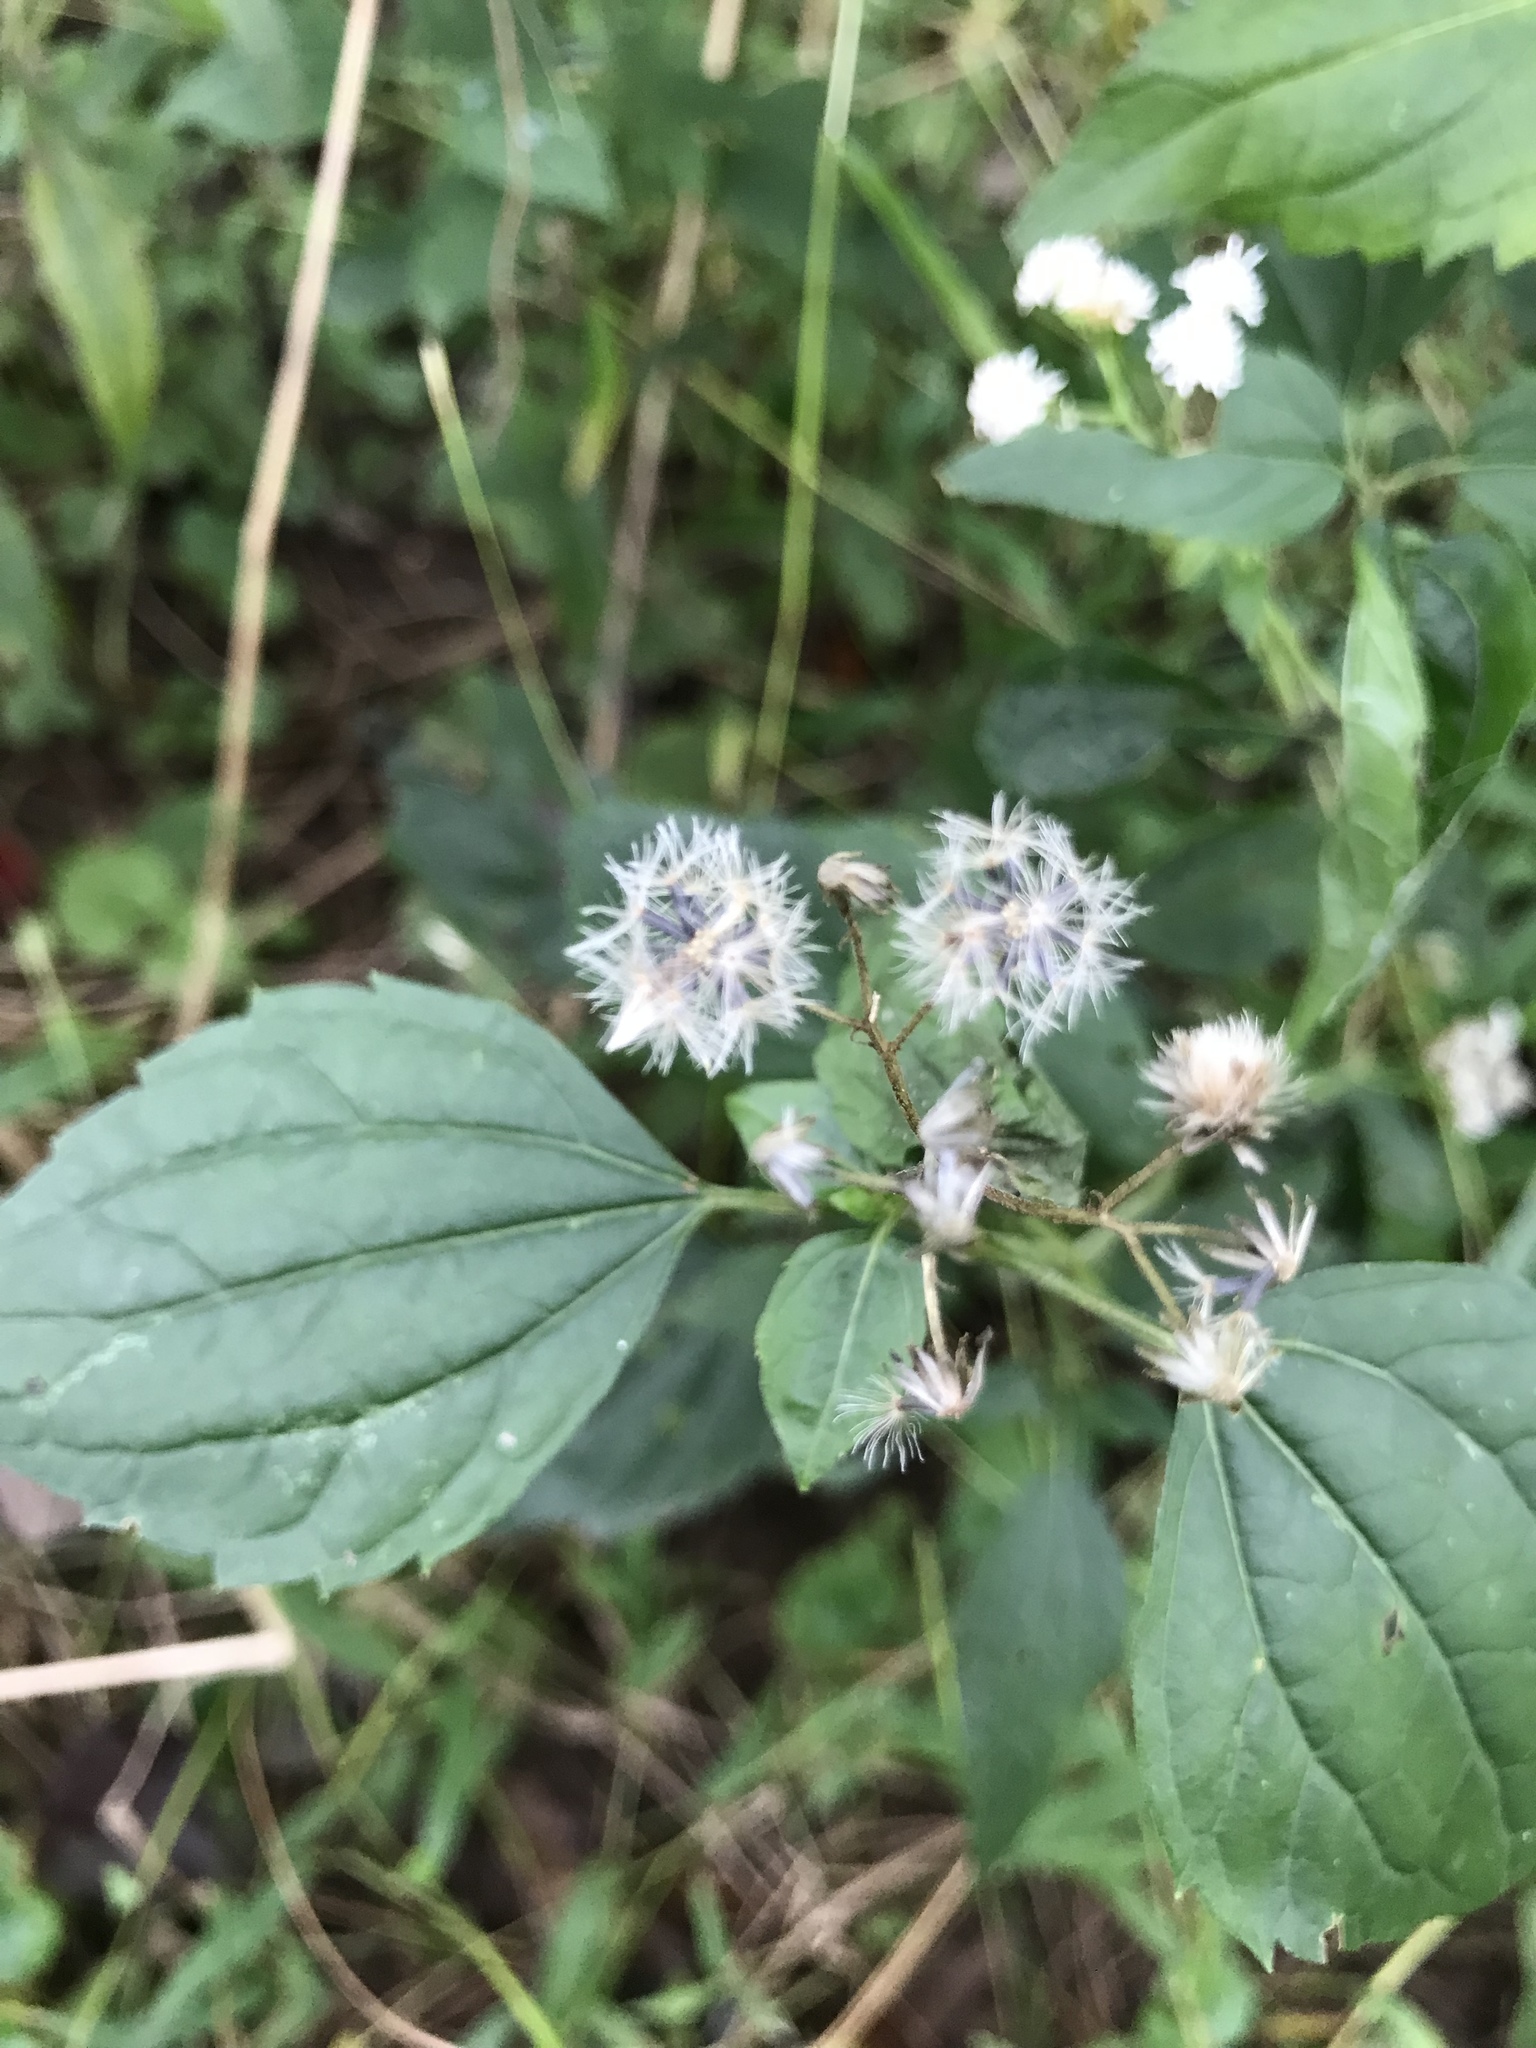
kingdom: Plantae
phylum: Tracheophyta
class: Magnoliopsida
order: Asterales
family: Asteraceae
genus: Ageratina
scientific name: Ageratina altissima
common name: White snakeroot
